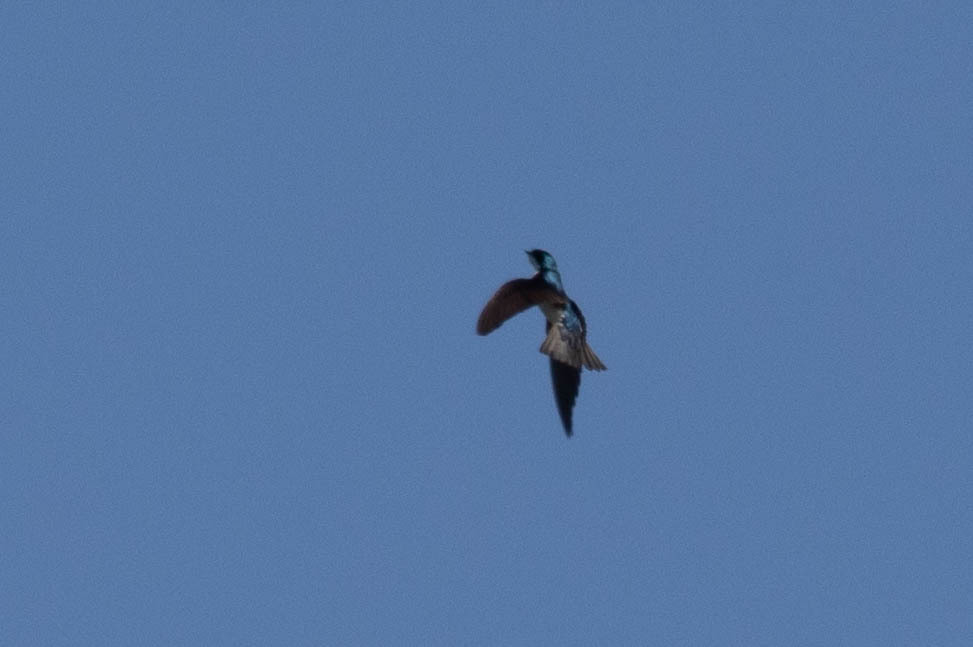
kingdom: Animalia
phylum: Chordata
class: Aves
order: Passeriformes
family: Hirundinidae
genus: Tachycineta
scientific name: Tachycineta bicolor
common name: Tree swallow
